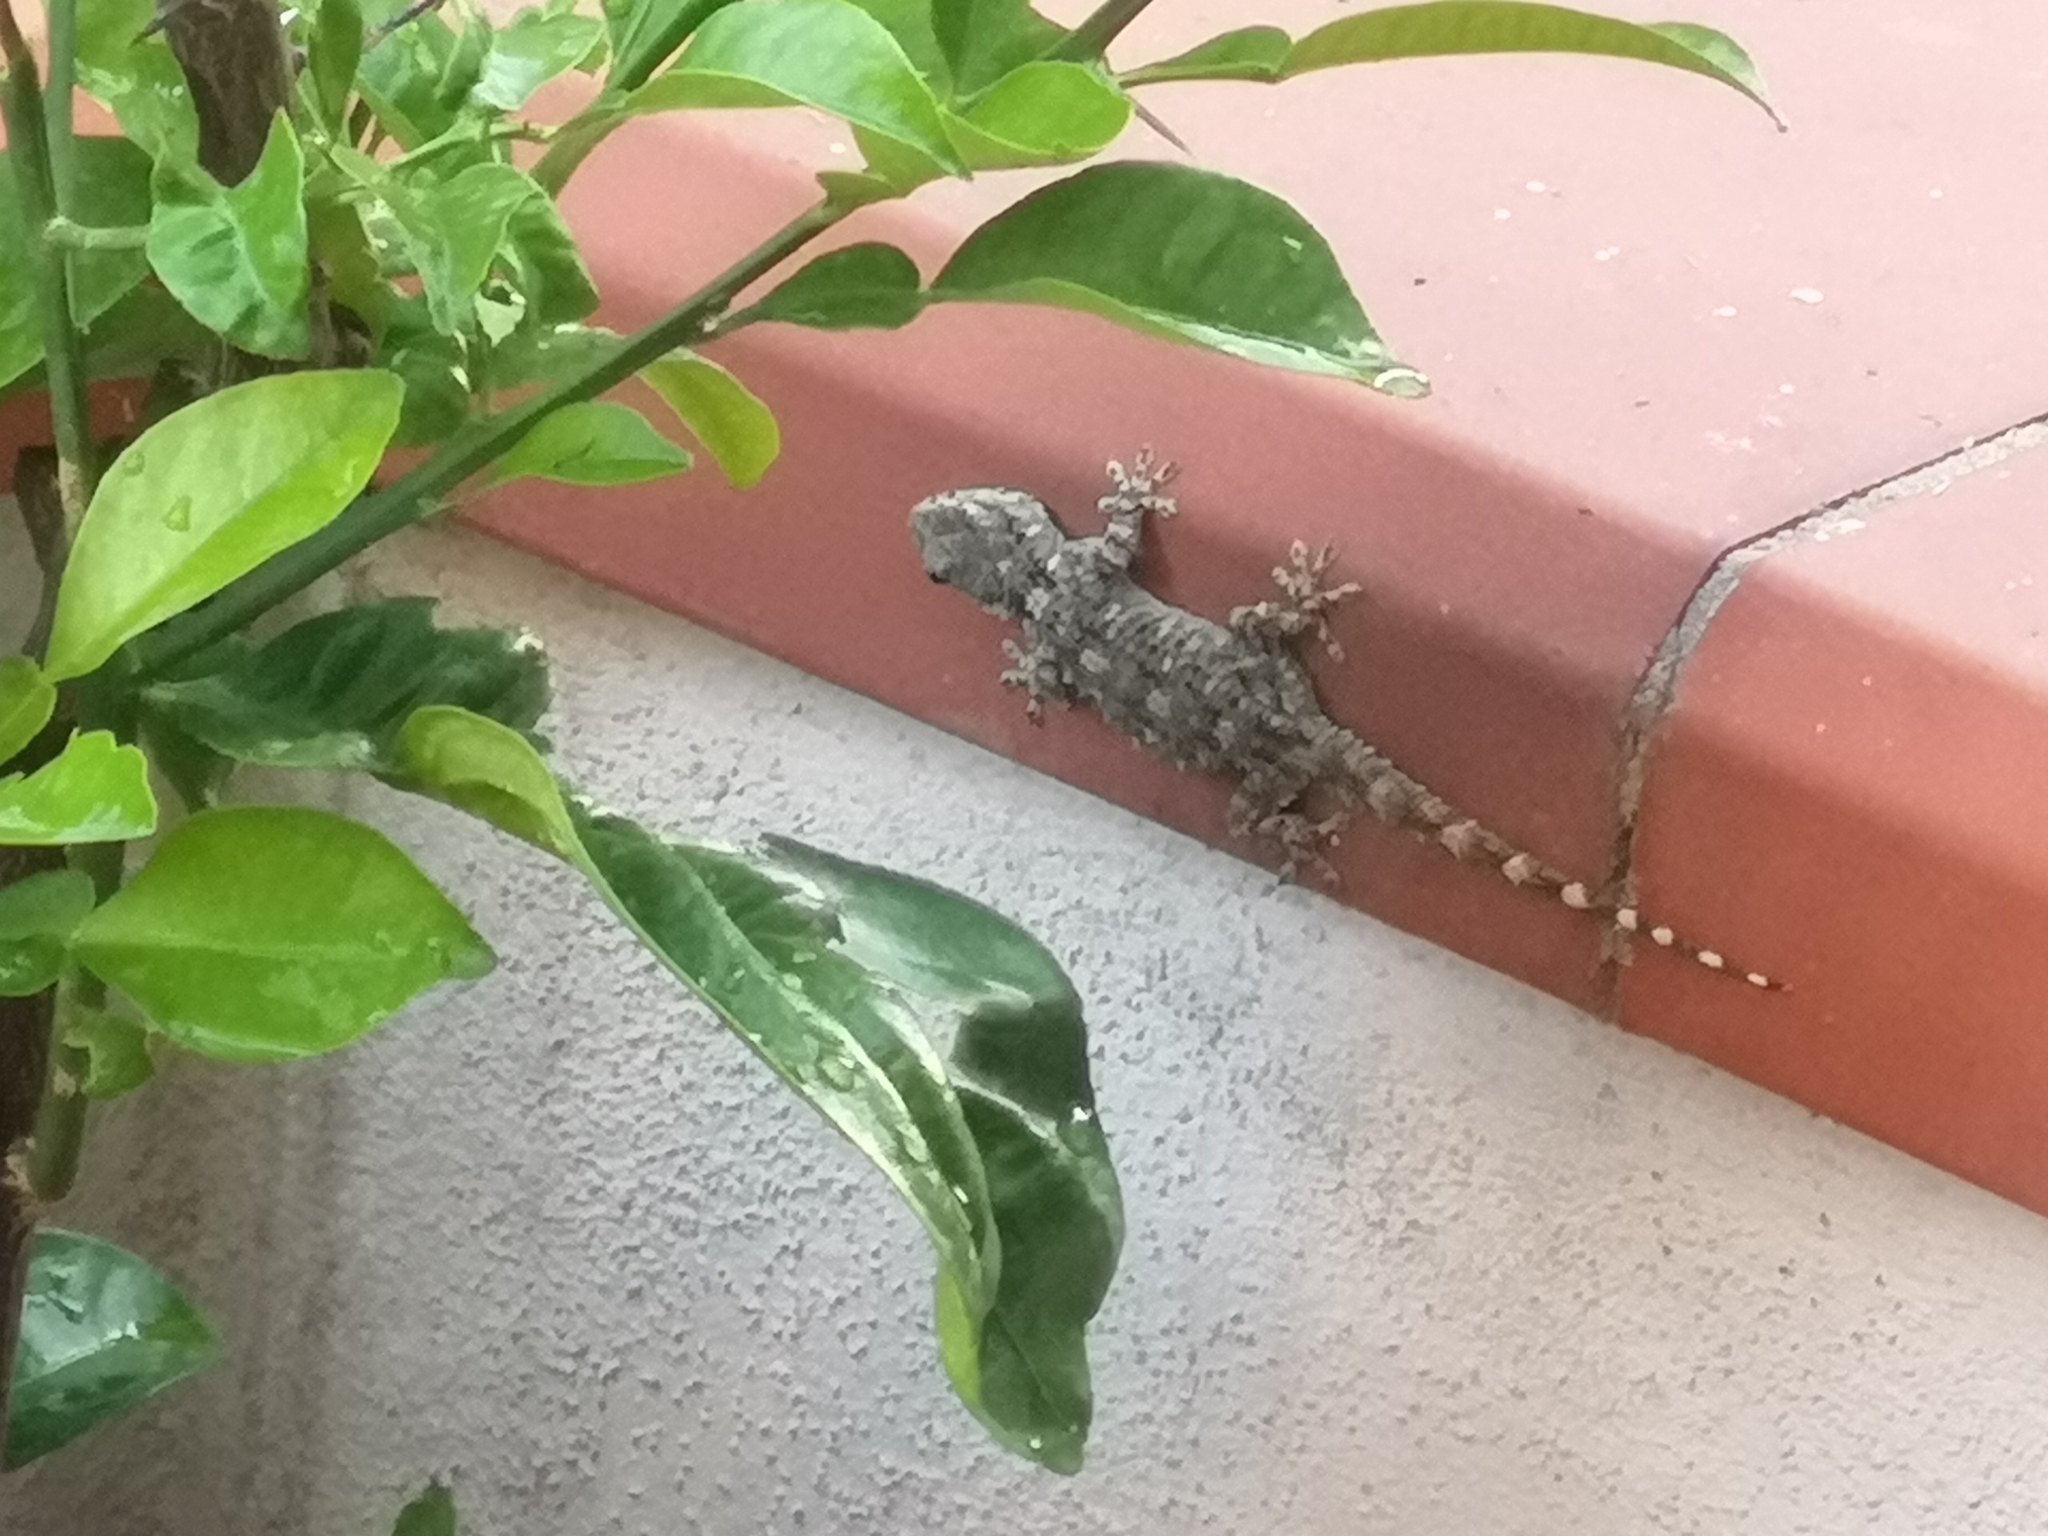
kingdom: Animalia
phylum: Chordata
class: Squamata
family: Phyllodactylidae
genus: Tarentola
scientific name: Tarentola mauritanica
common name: Moorish gecko
